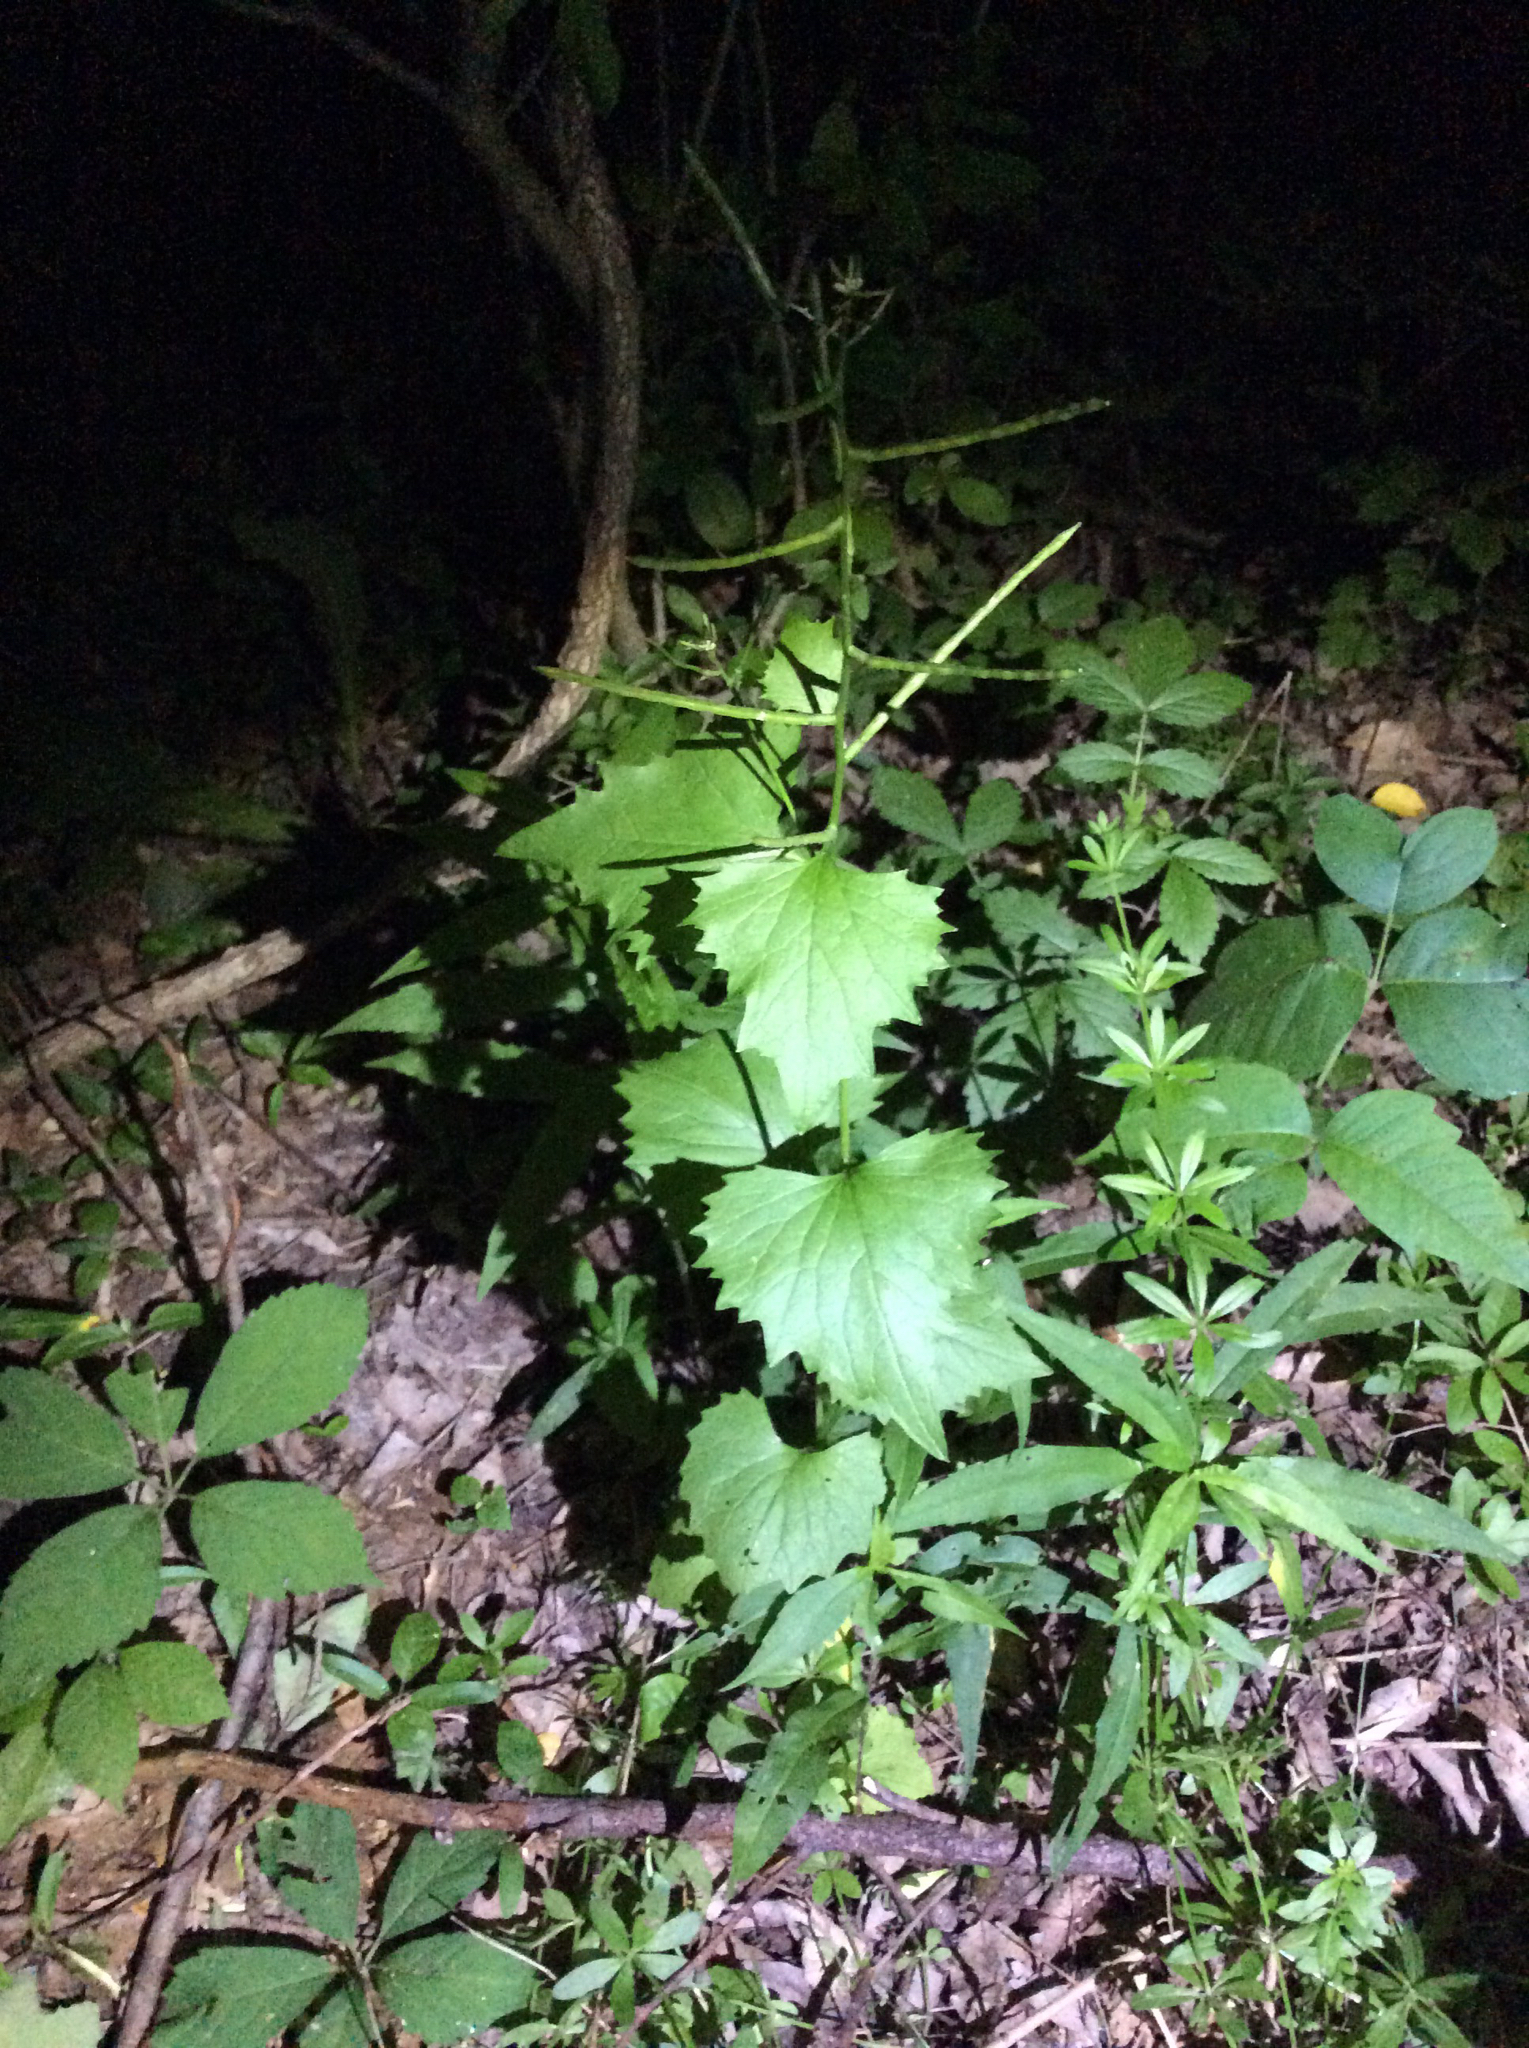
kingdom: Plantae
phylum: Tracheophyta
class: Magnoliopsida
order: Brassicales
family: Brassicaceae
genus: Alliaria
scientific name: Alliaria petiolata
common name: Garlic mustard
